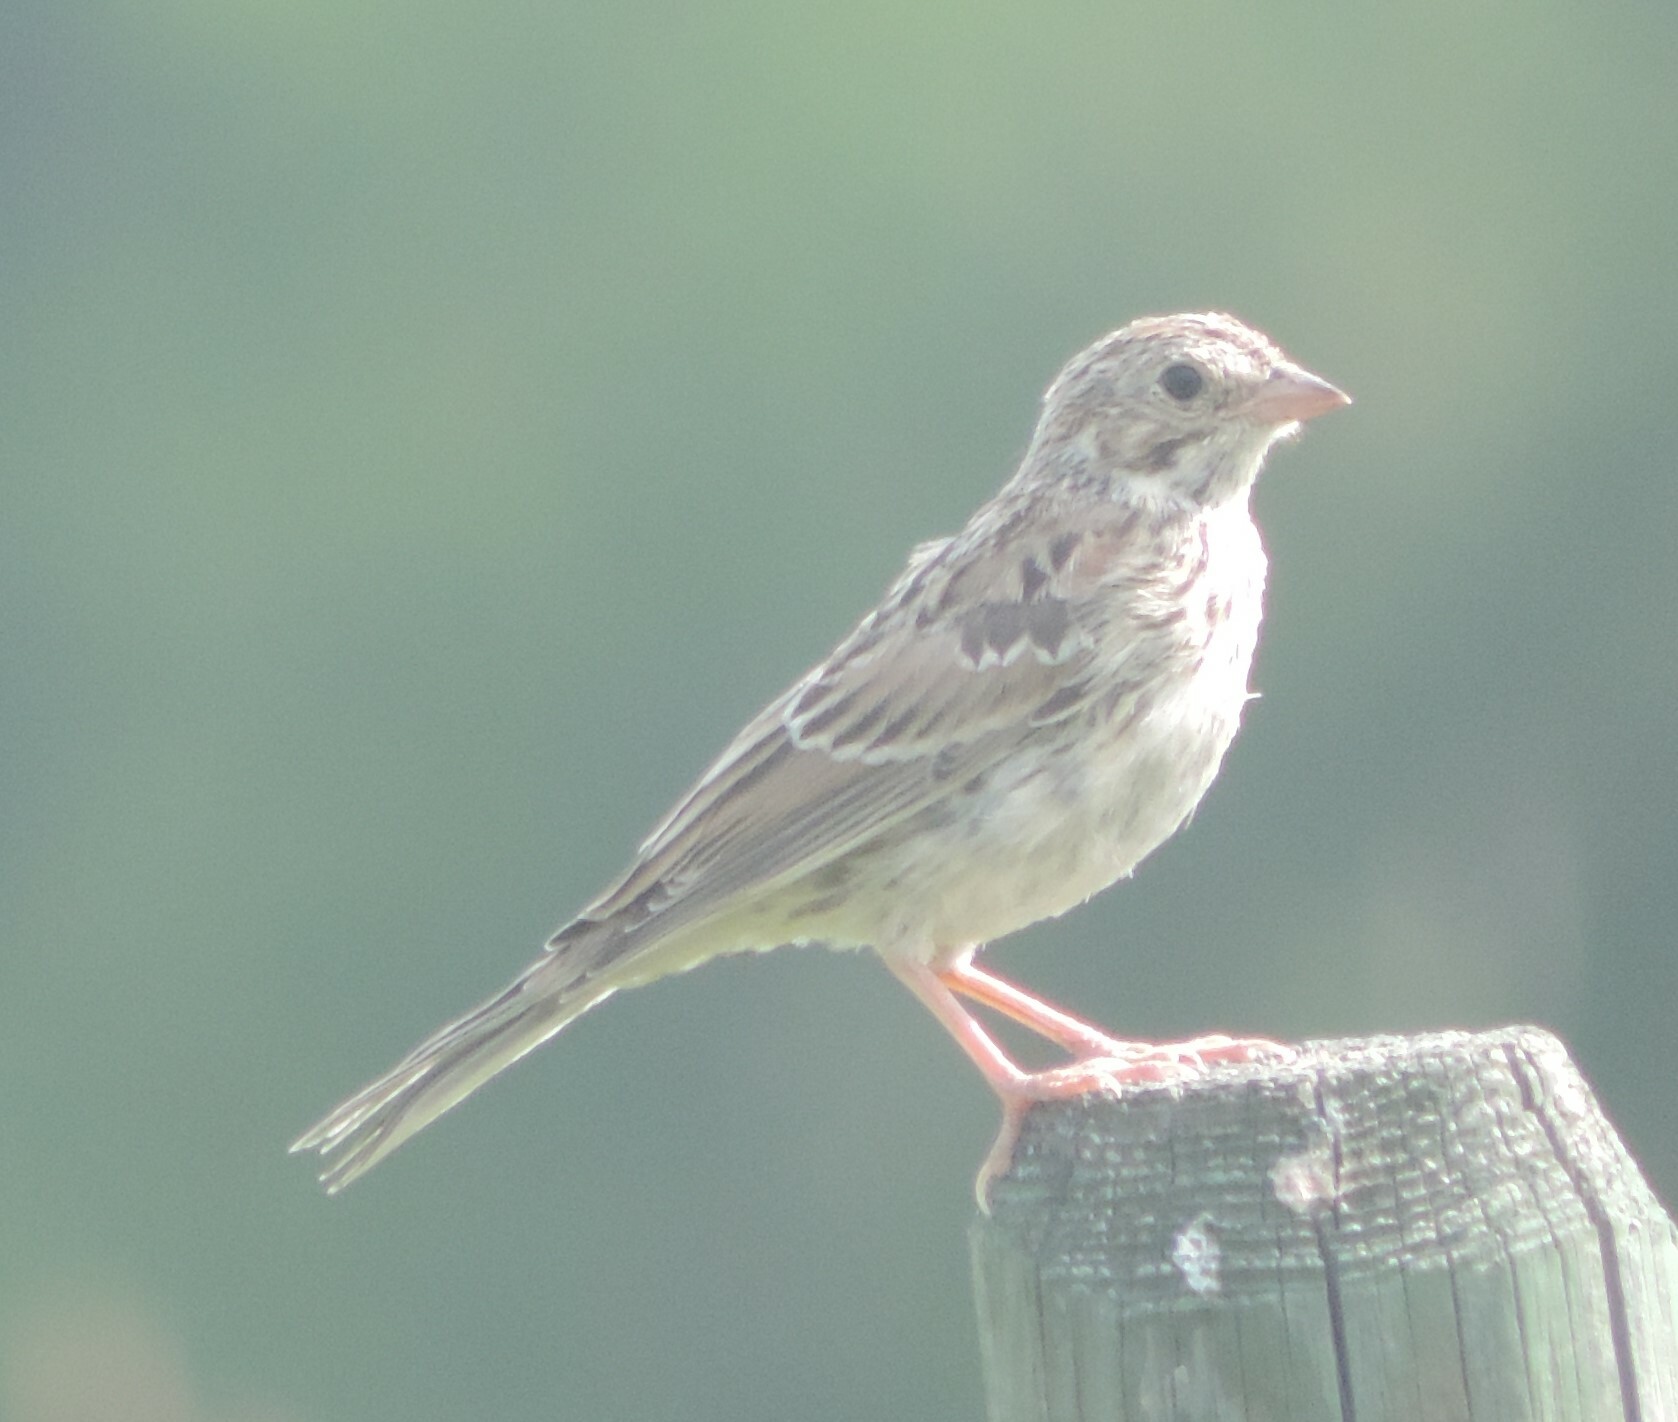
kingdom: Animalia
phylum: Chordata
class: Aves
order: Passeriformes
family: Passerellidae
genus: Pooecetes
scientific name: Pooecetes gramineus
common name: Vesper sparrow
